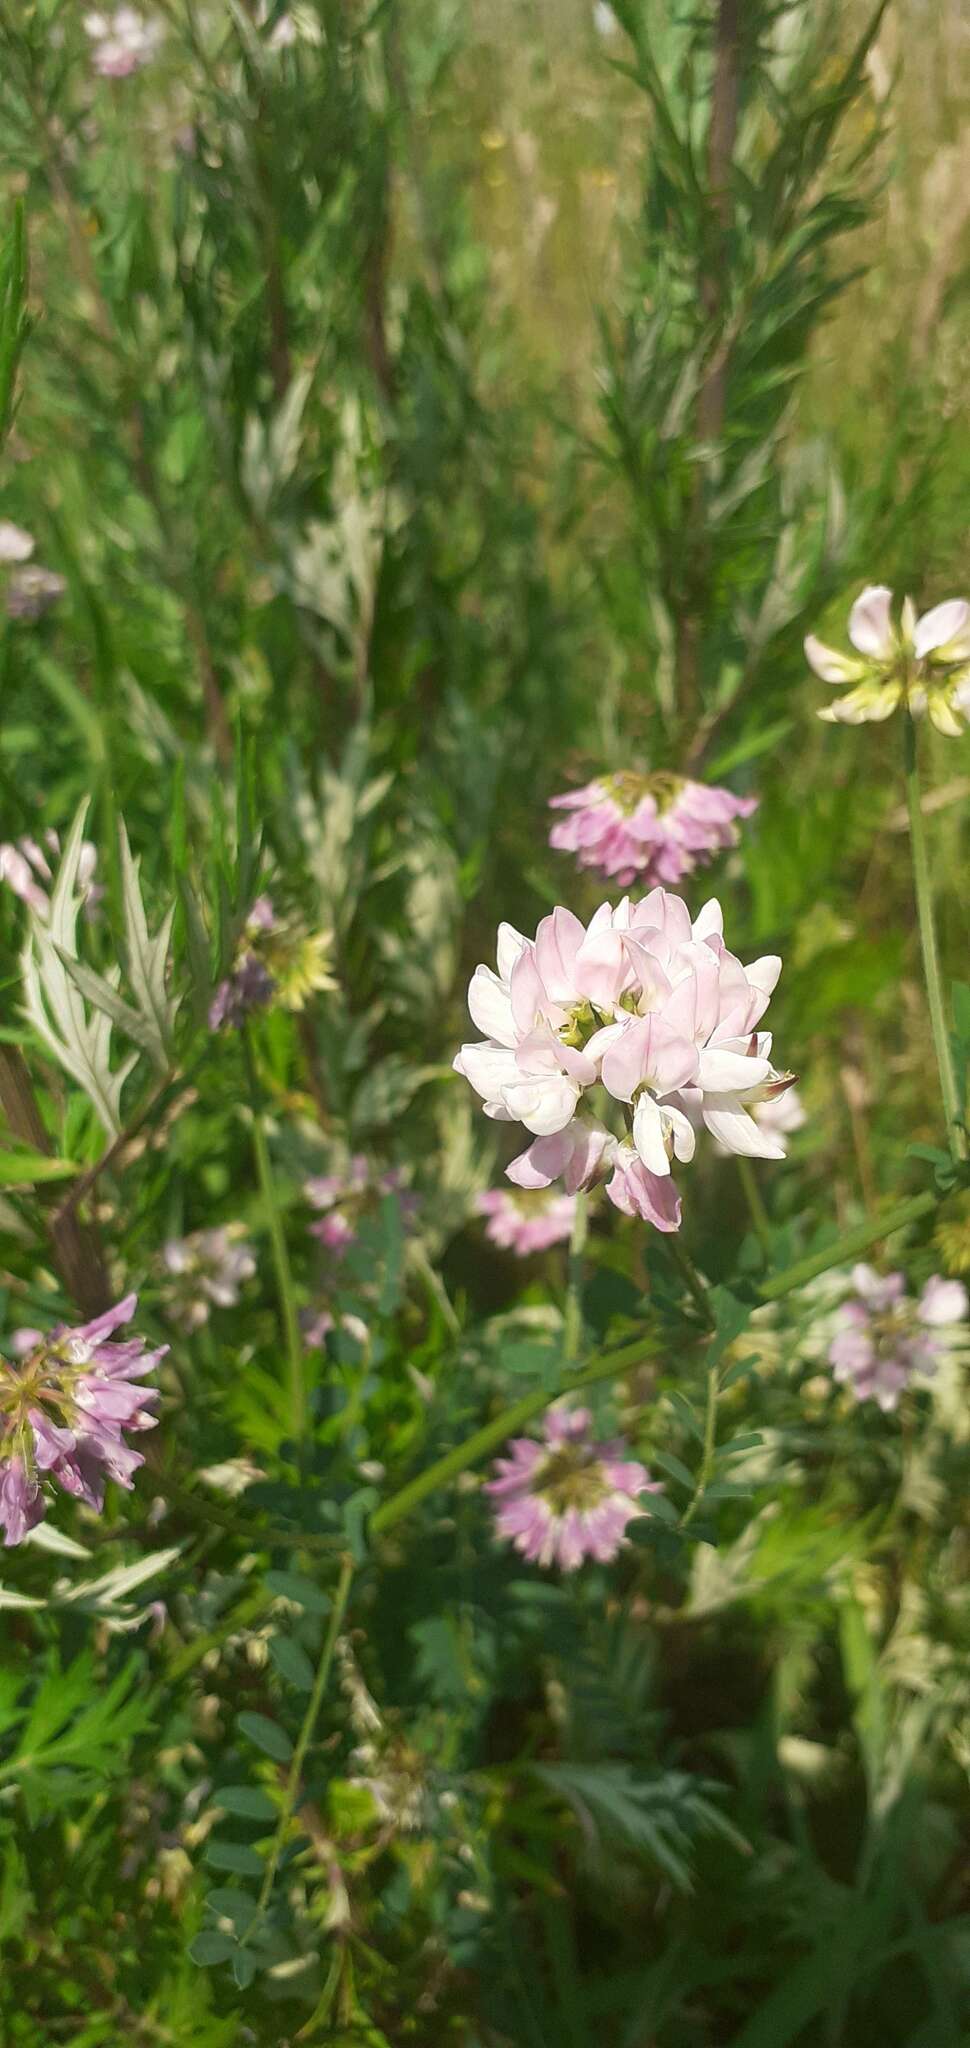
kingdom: Plantae
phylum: Tracheophyta
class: Magnoliopsida
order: Fabales
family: Fabaceae
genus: Coronilla
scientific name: Coronilla varia
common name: Crownvetch
